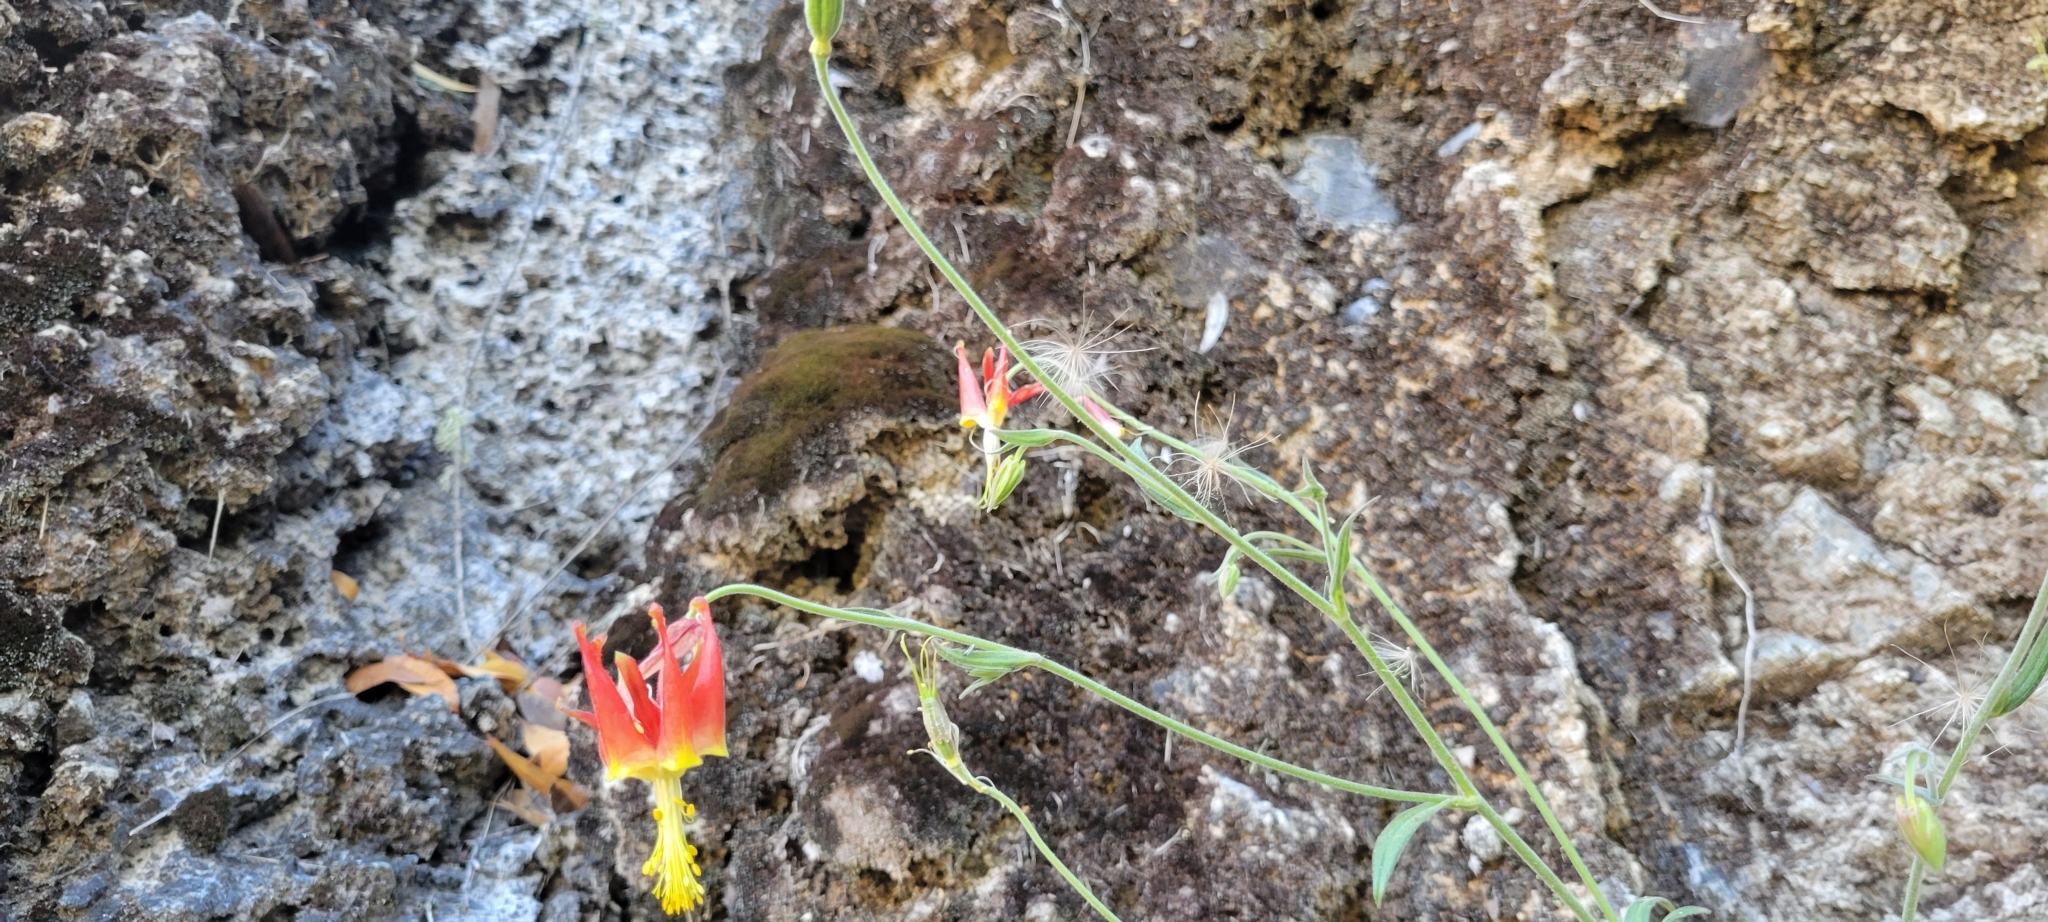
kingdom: Plantae
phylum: Tracheophyta
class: Magnoliopsida
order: Ranunculales
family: Ranunculaceae
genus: Aquilegia
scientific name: Aquilegia eximia
